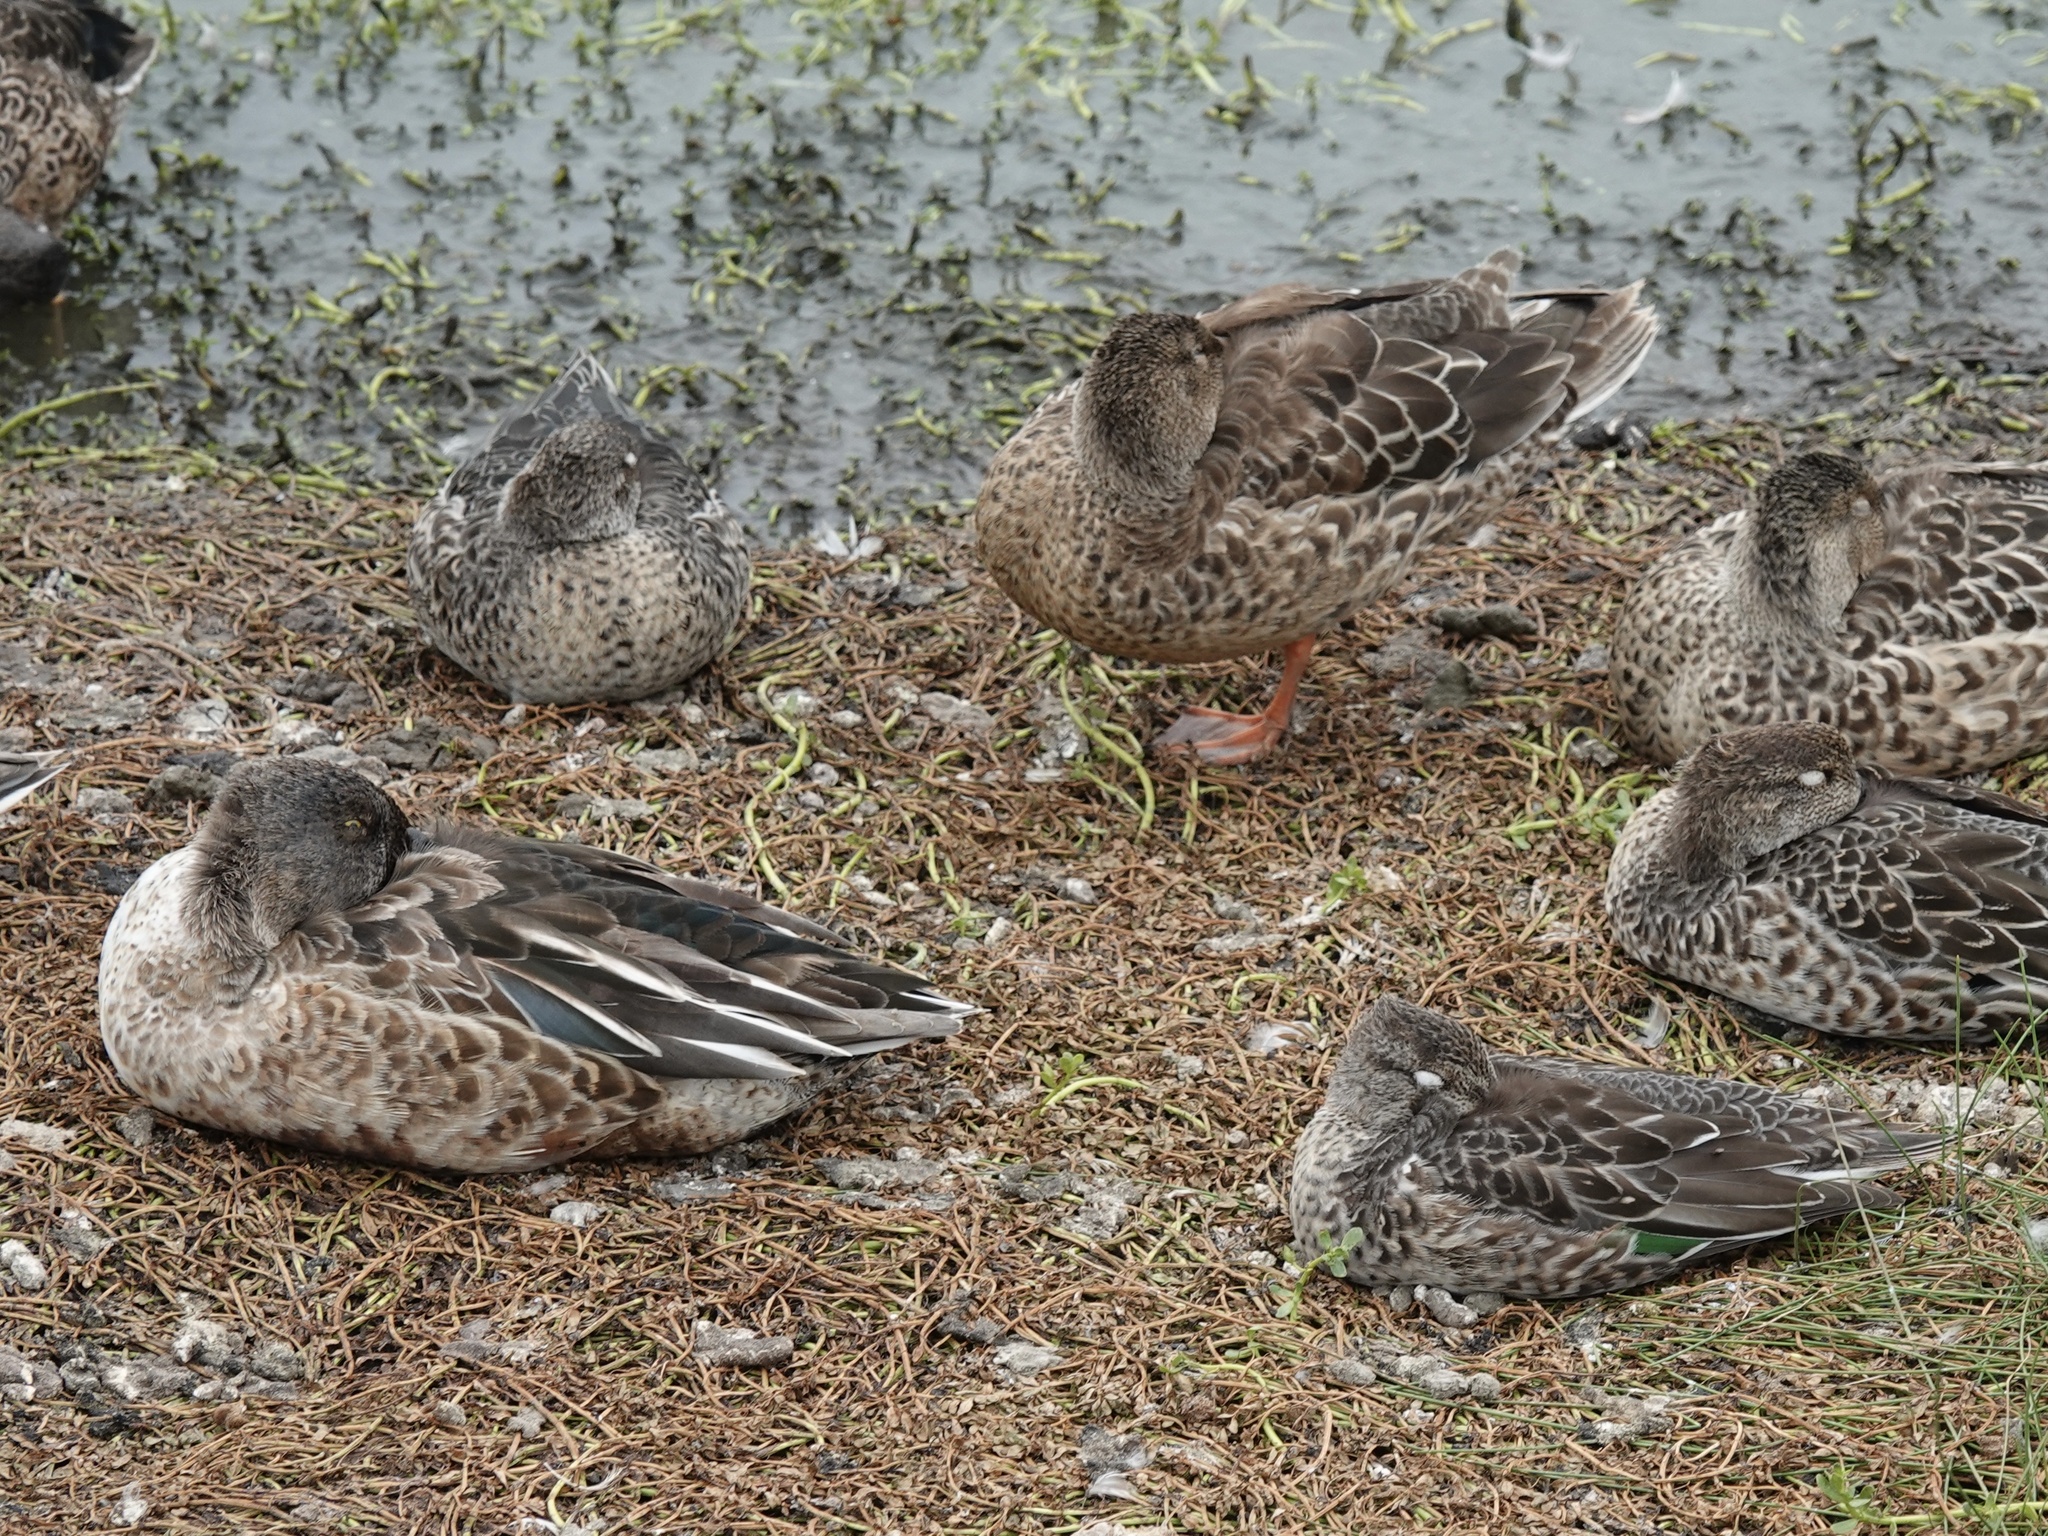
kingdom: Animalia
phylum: Chordata
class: Aves
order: Anseriformes
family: Anatidae
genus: Spatula
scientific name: Spatula clypeata
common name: Northern shoveler
